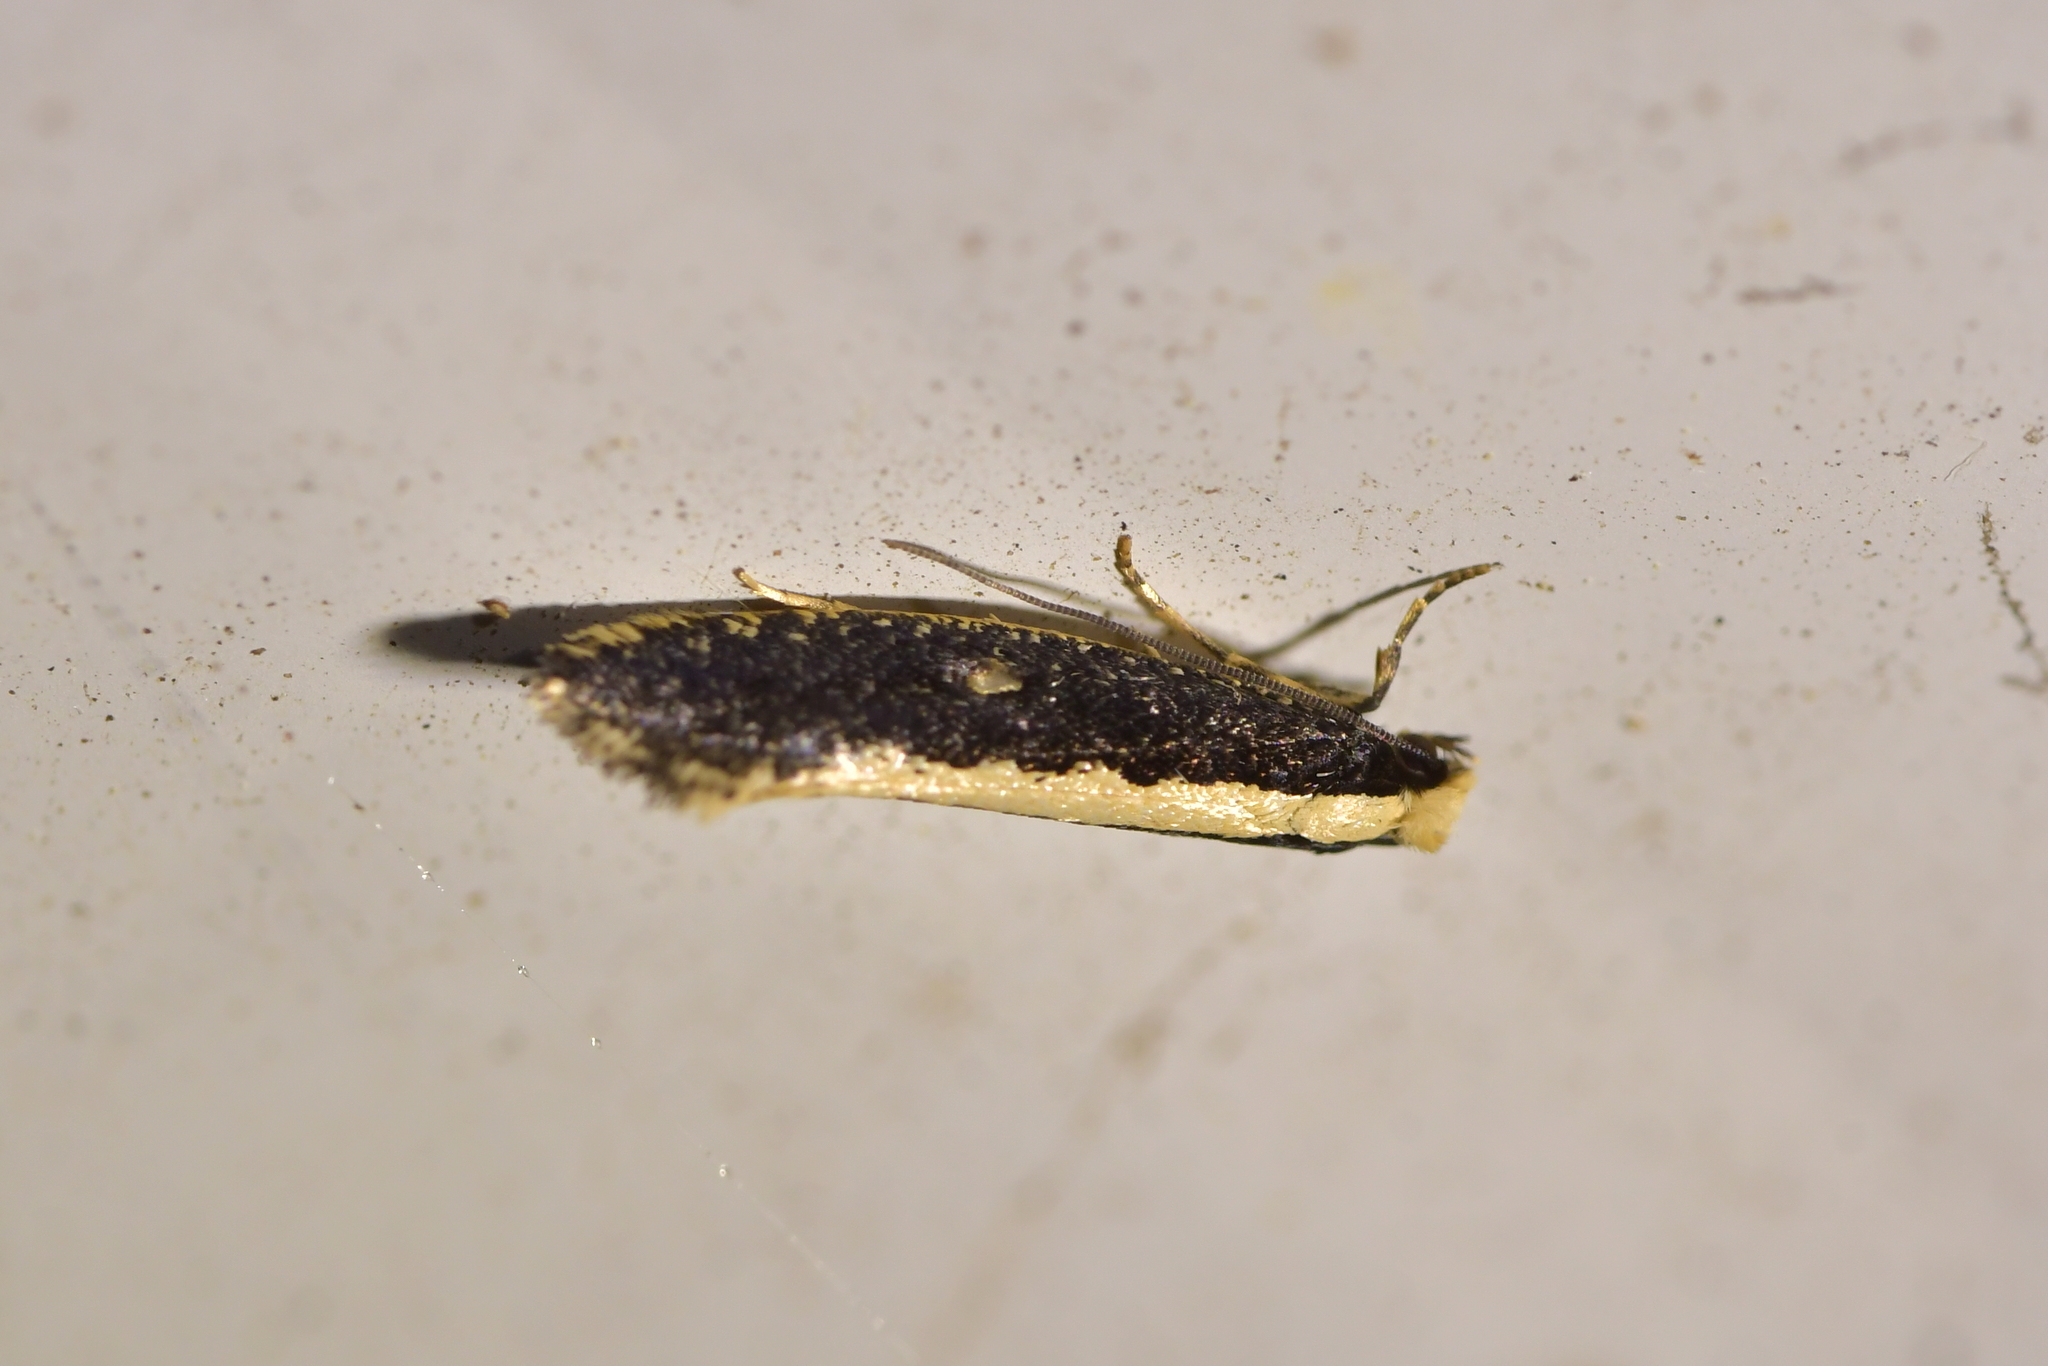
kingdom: Animalia
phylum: Arthropoda
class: Insecta
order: Lepidoptera
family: Tineidae
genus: Monopis
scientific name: Monopis ethelella
